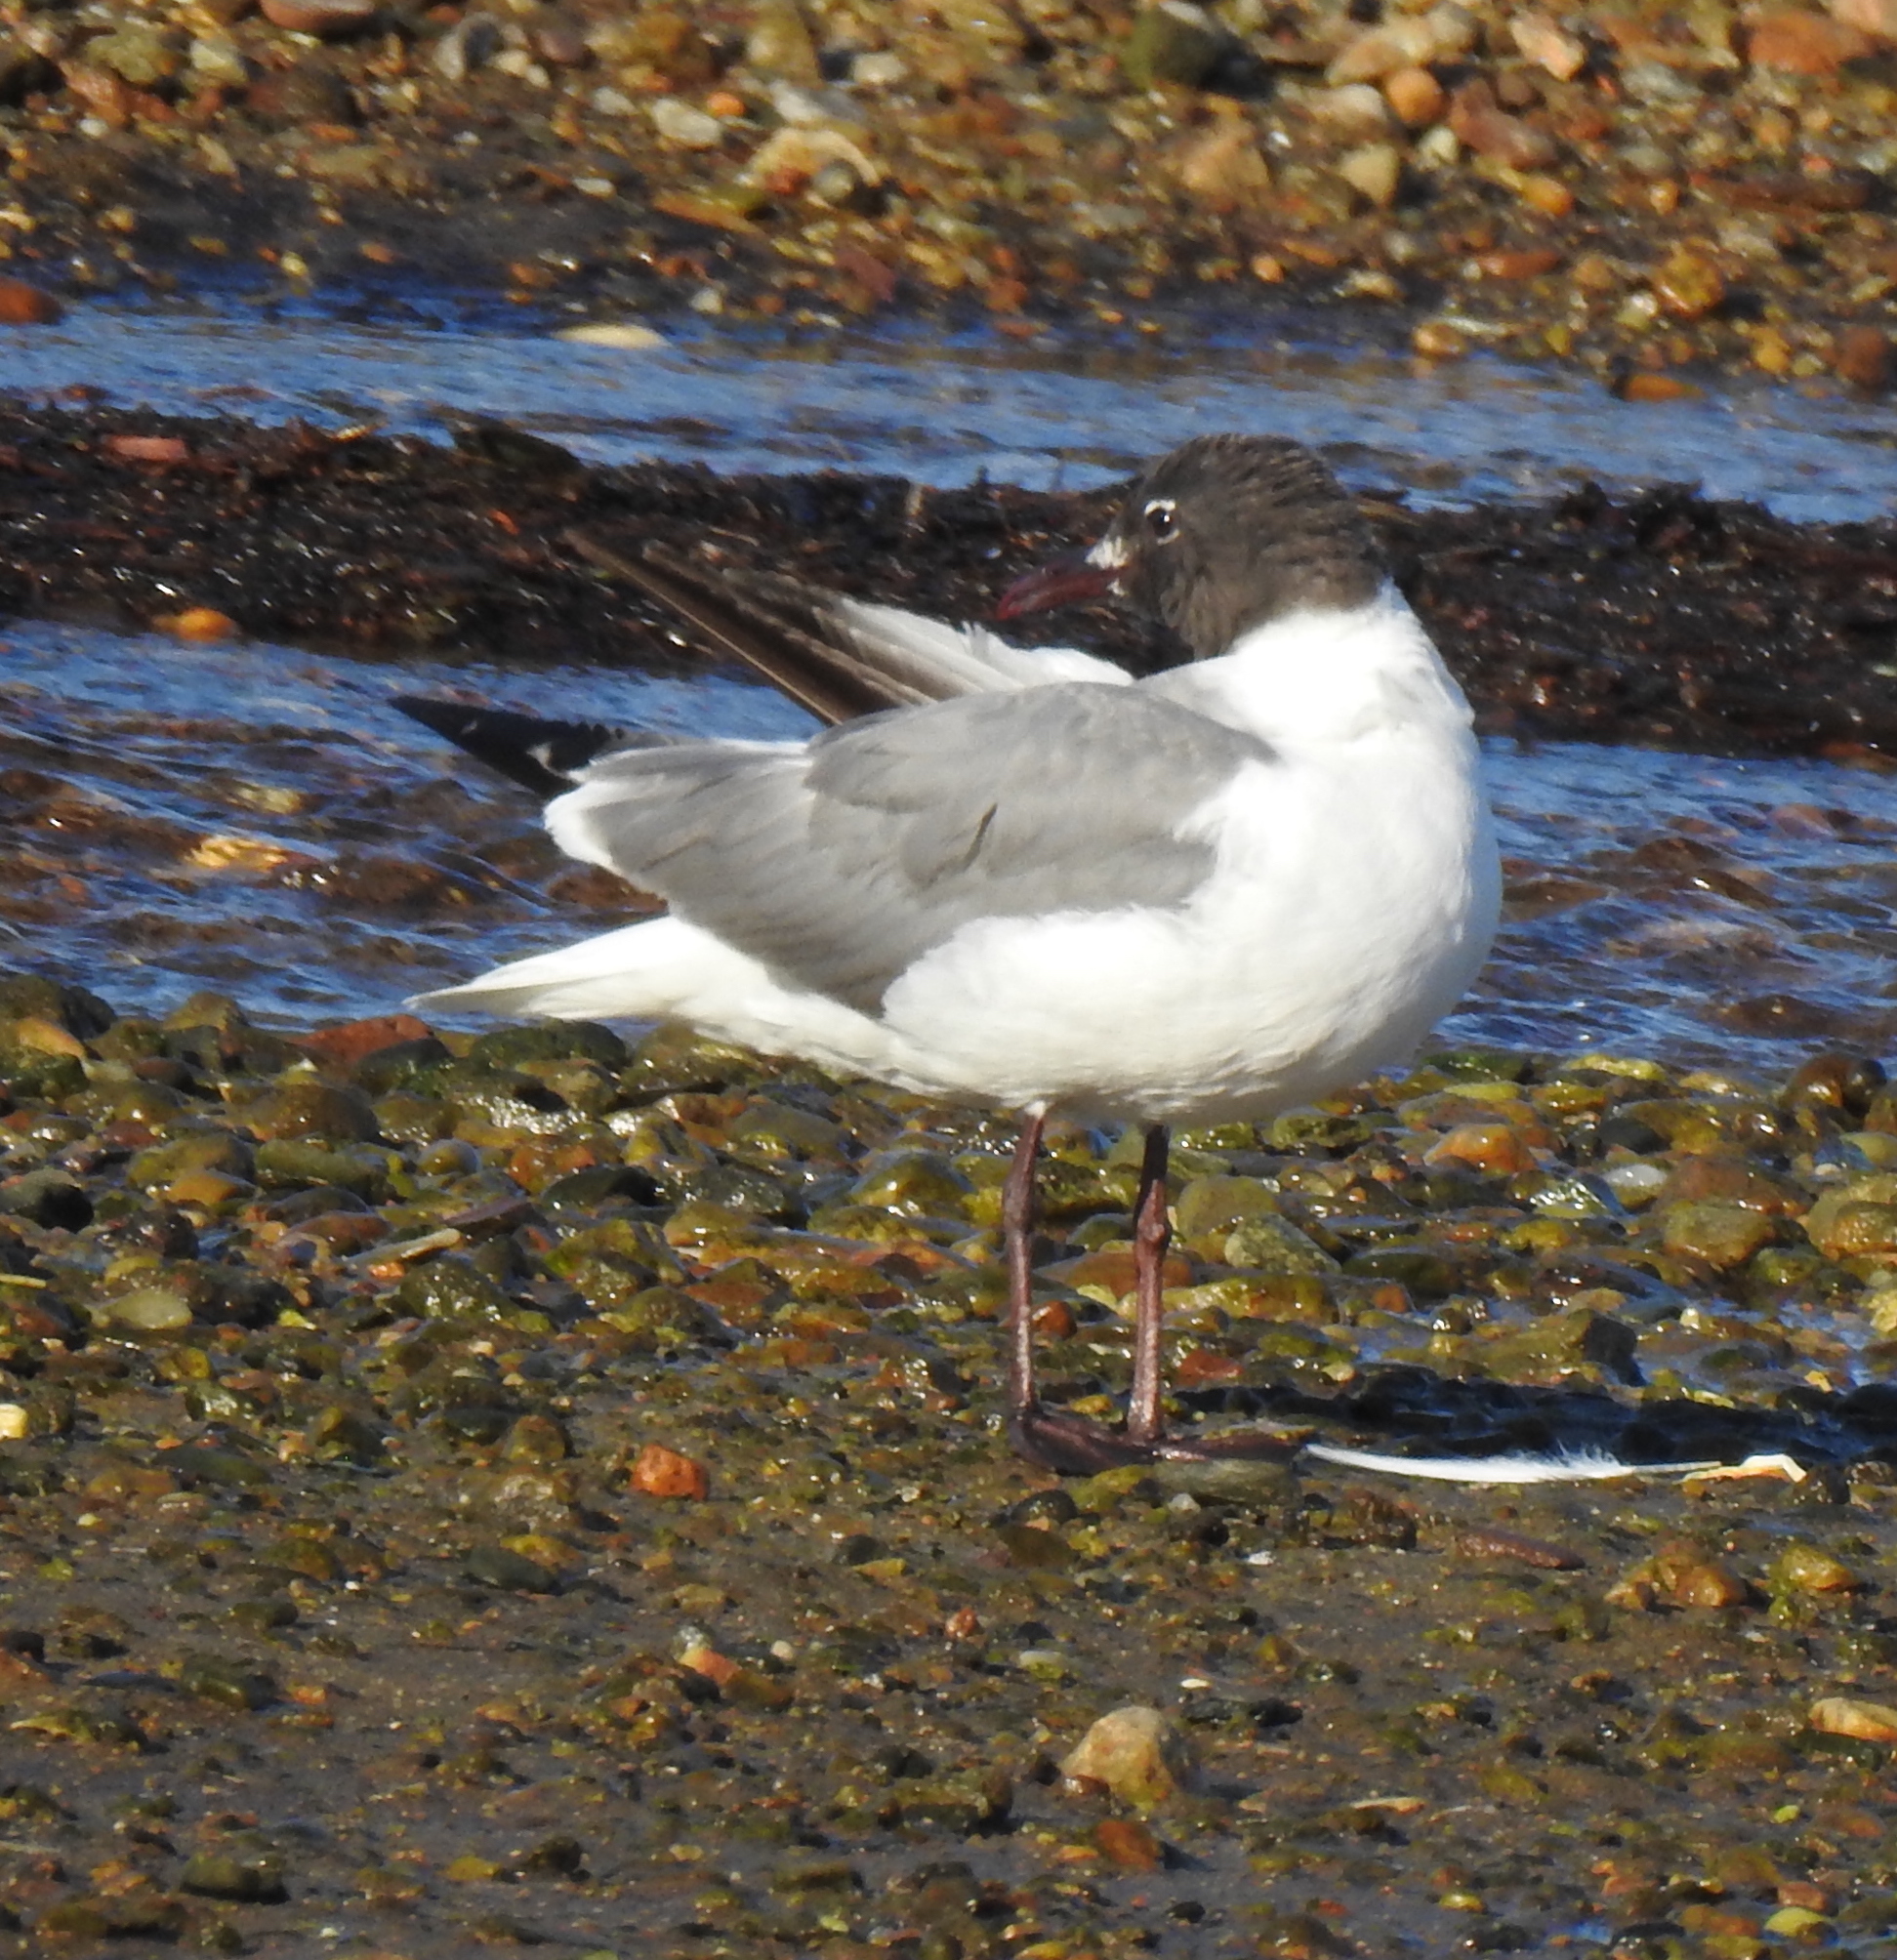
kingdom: Animalia
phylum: Chordata
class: Aves
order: Charadriiformes
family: Laridae
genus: Leucophaeus
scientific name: Leucophaeus atricilla
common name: Laughing gull
